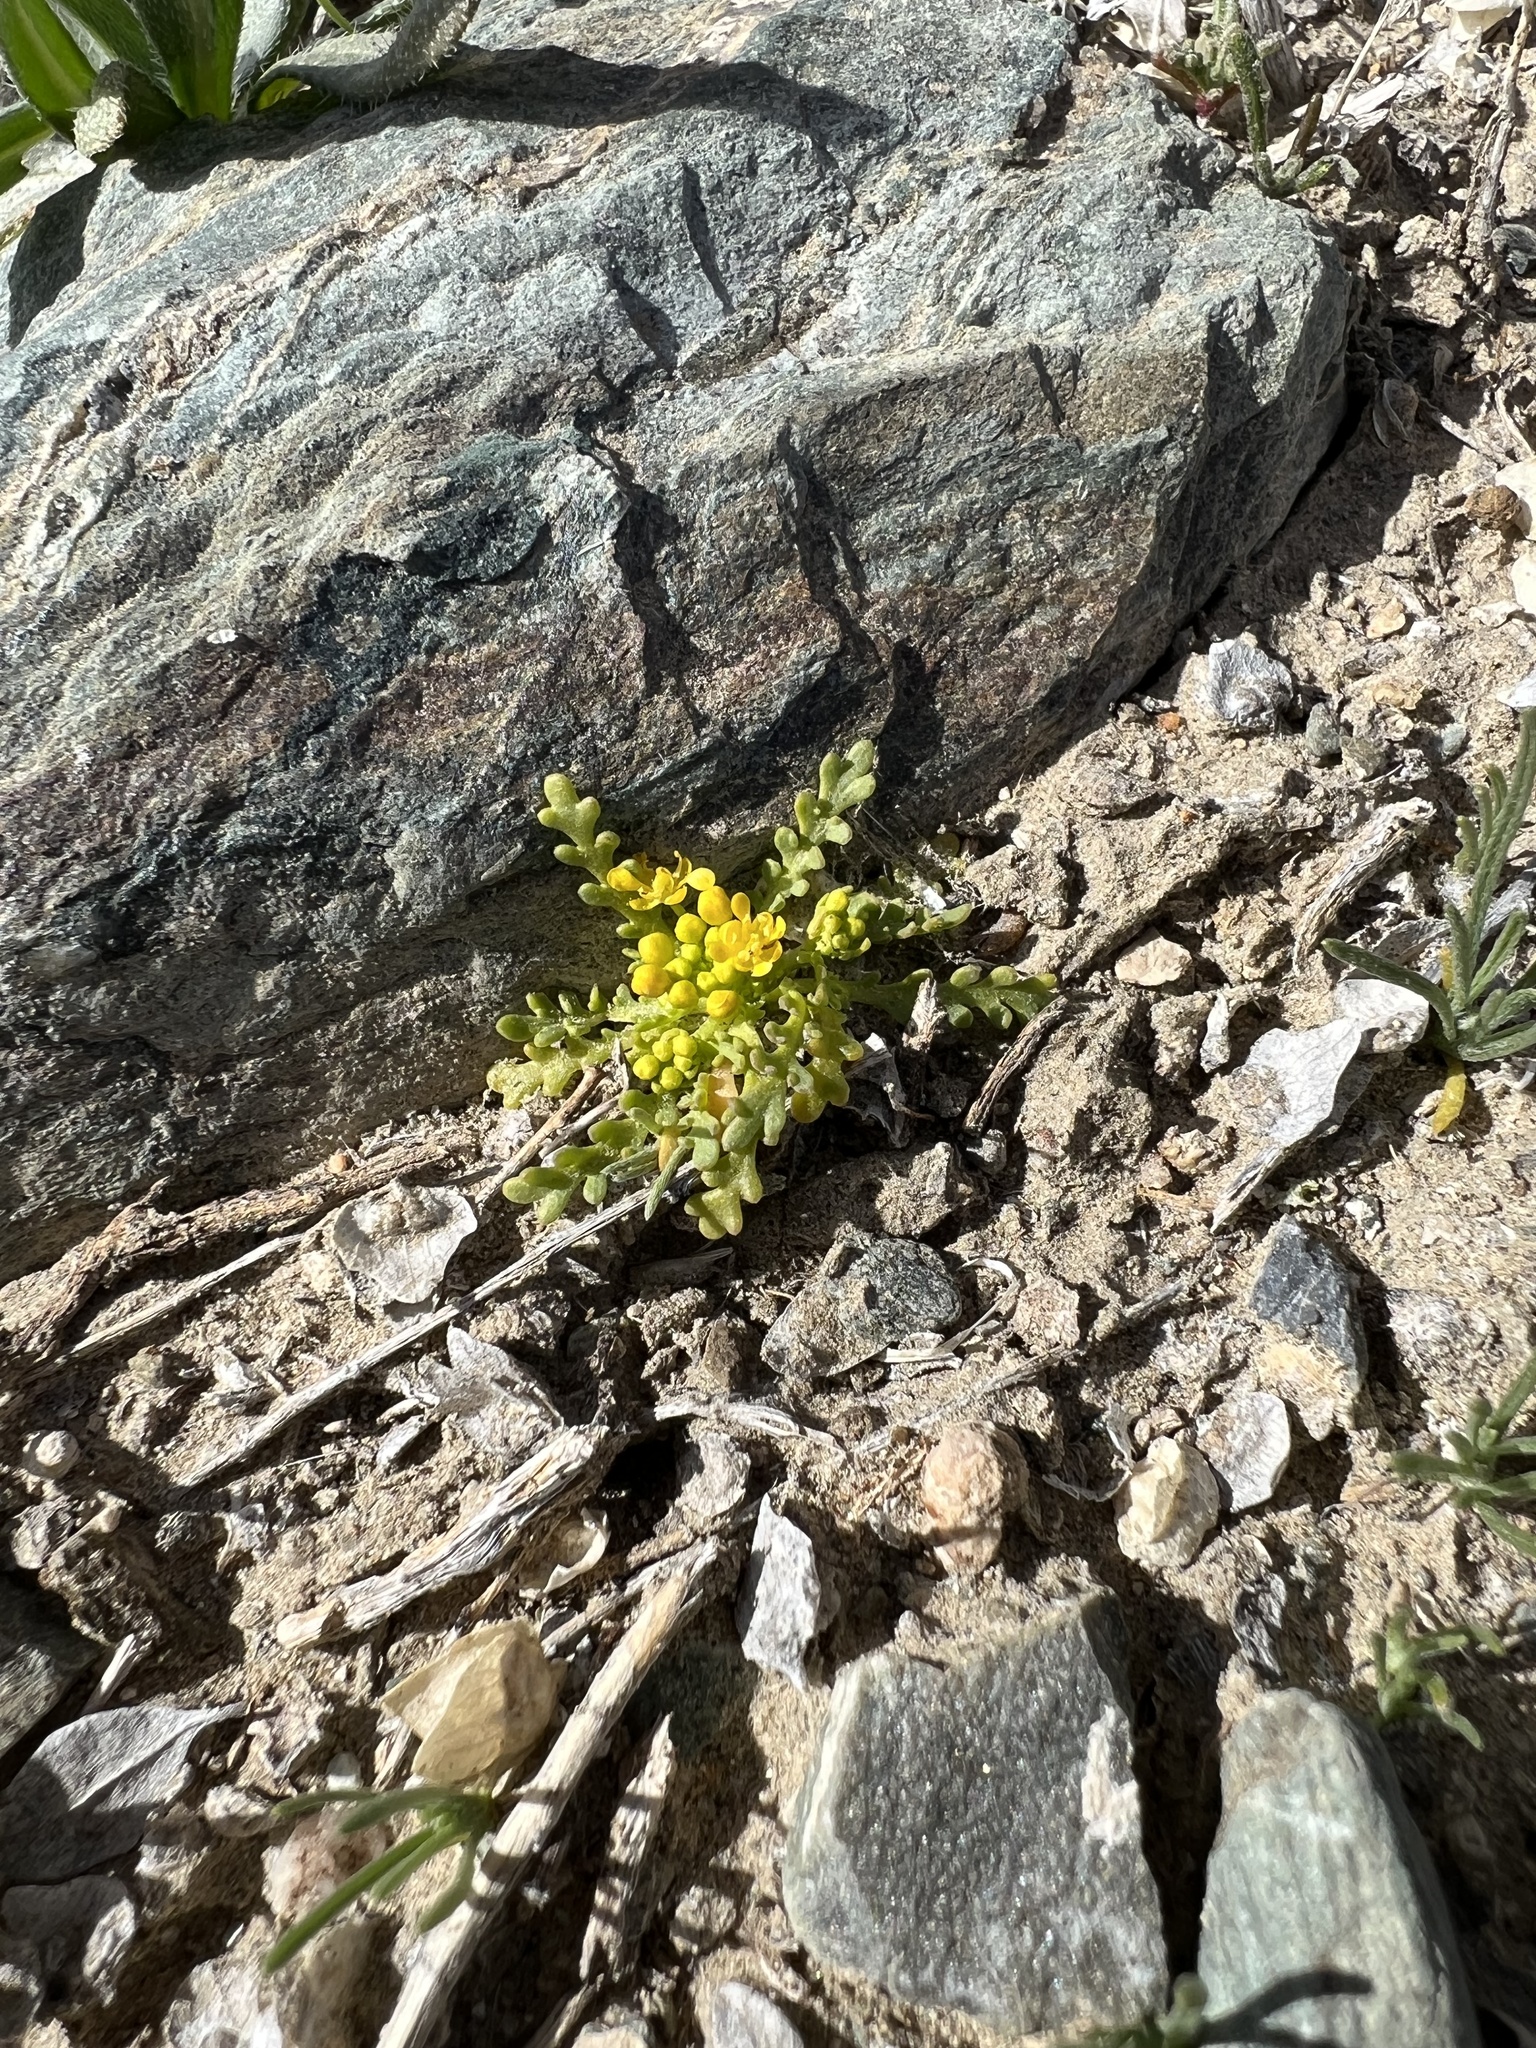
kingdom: Plantae
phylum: Tracheophyta
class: Magnoliopsida
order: Brassicales
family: Brassicaceae
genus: Lepidium
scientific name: Lepidium flavum
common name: Yellow pepperwort
